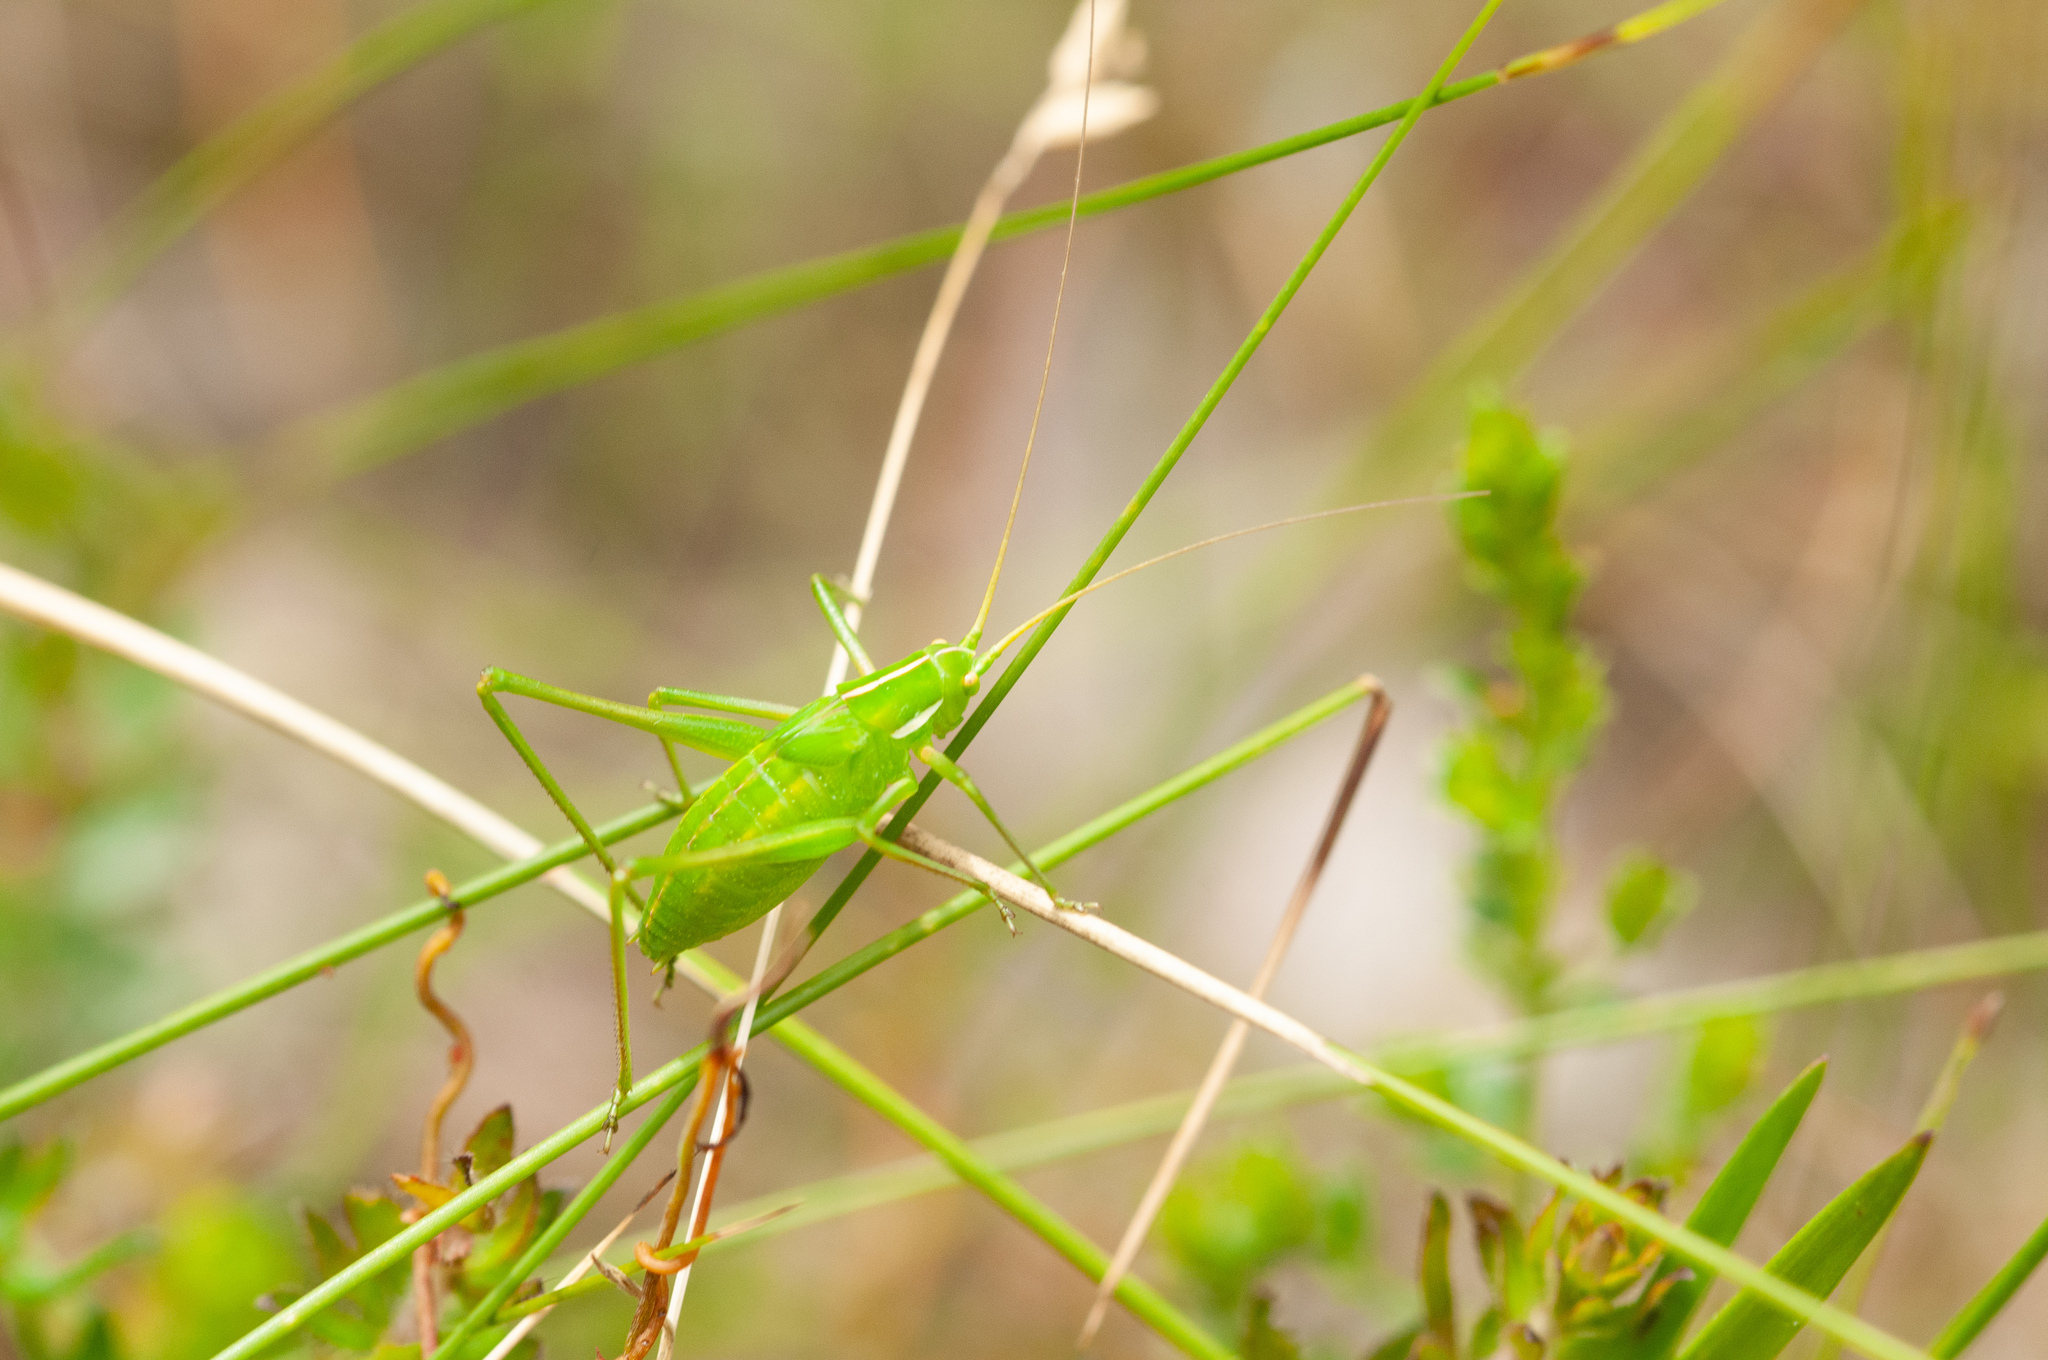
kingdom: Animalia
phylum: Arthropoda
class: Insecta
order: Orthoptera
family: Tettigoniidae
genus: Tinzeda
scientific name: Tinzeda albosignata
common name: Stout tinzeda
